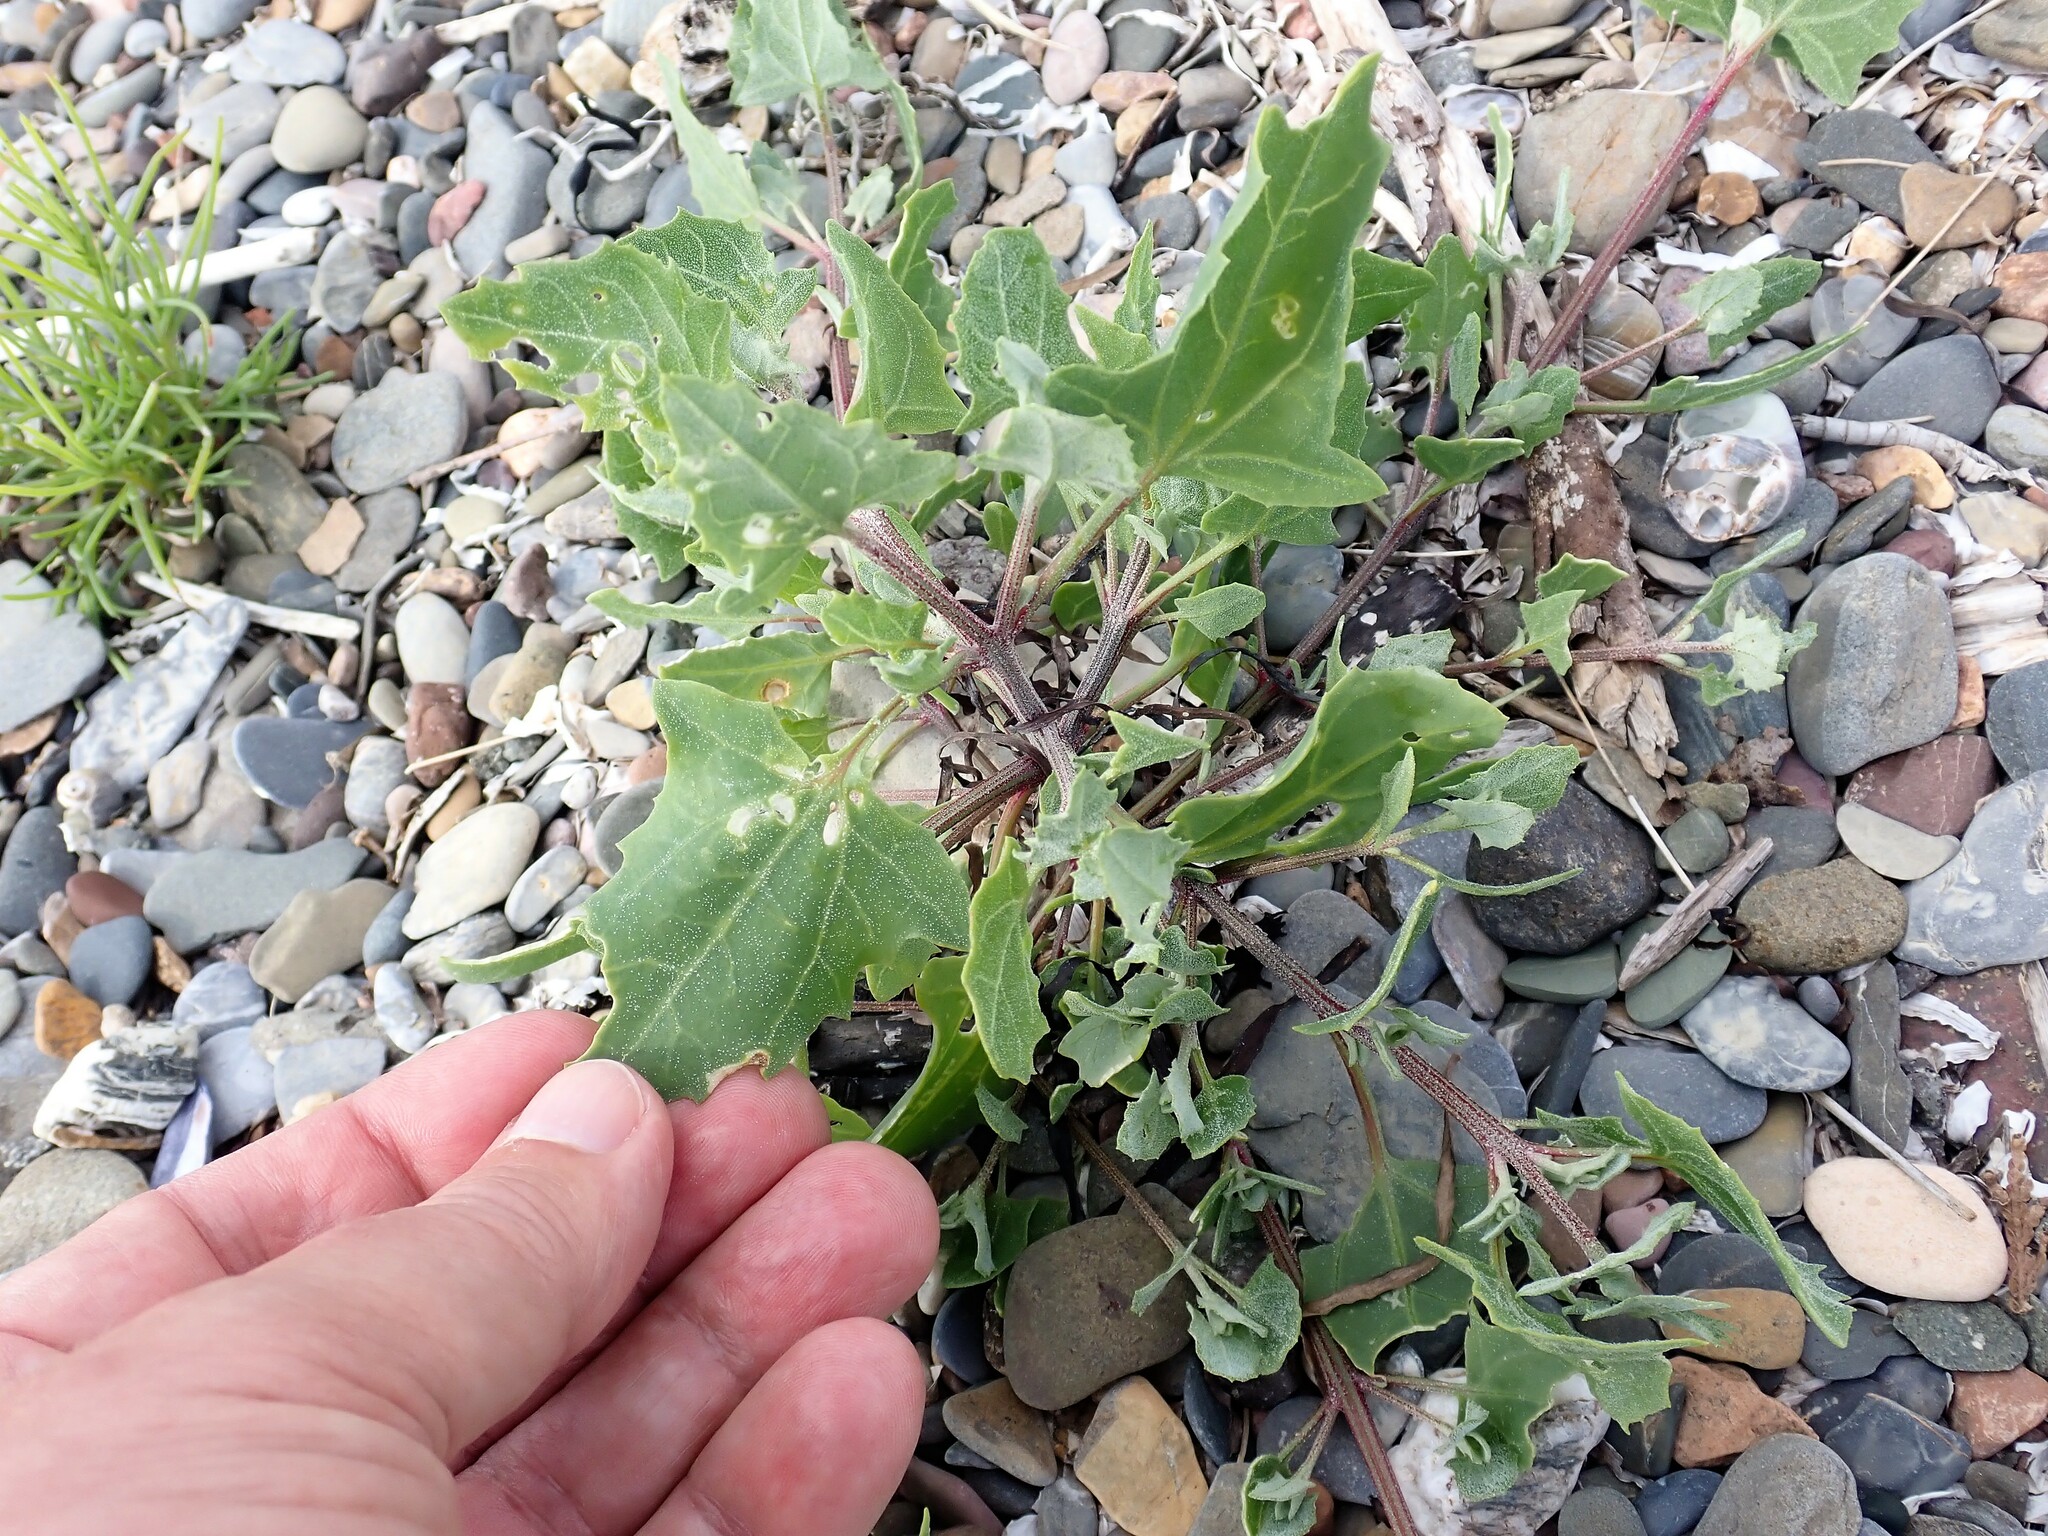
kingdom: Plantae
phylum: Tracheophyta
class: Magnoliopsida
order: Caryophyllales
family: Amaranthaceae
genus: Atriplex
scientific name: Atriplex prostrata
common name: Spear-leaved orache
